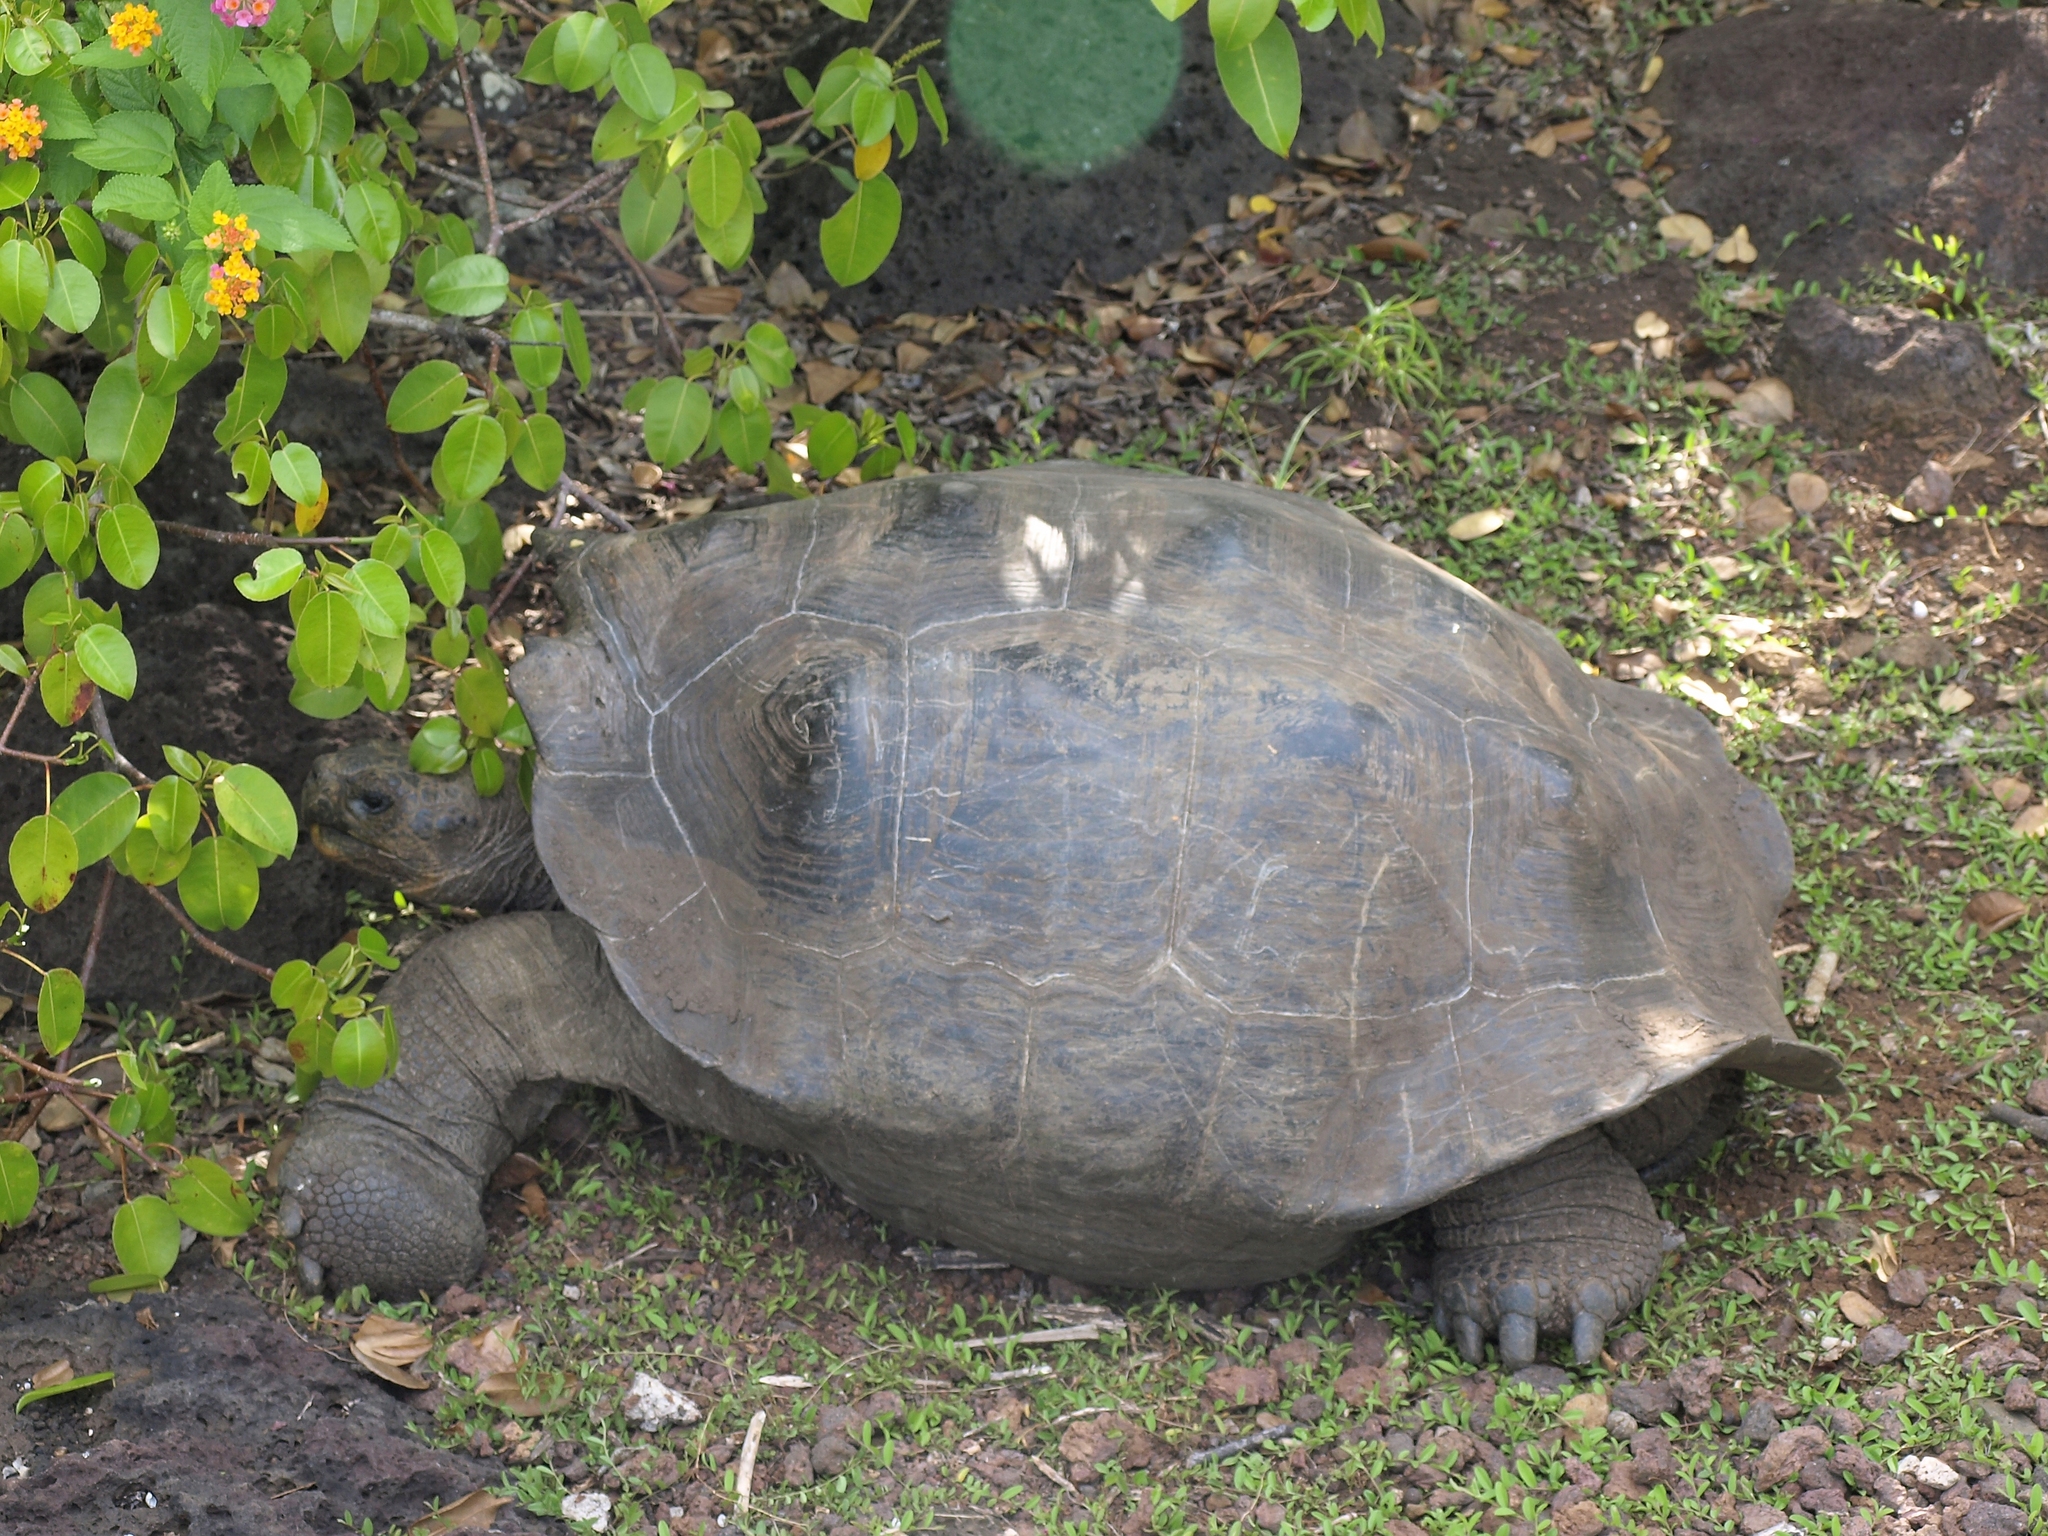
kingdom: Animalia
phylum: Chordata
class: Testudines
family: Testudinidae
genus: Chelonoidis
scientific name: Chelonoidis chathamensis
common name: Chatham island giant tortoise
